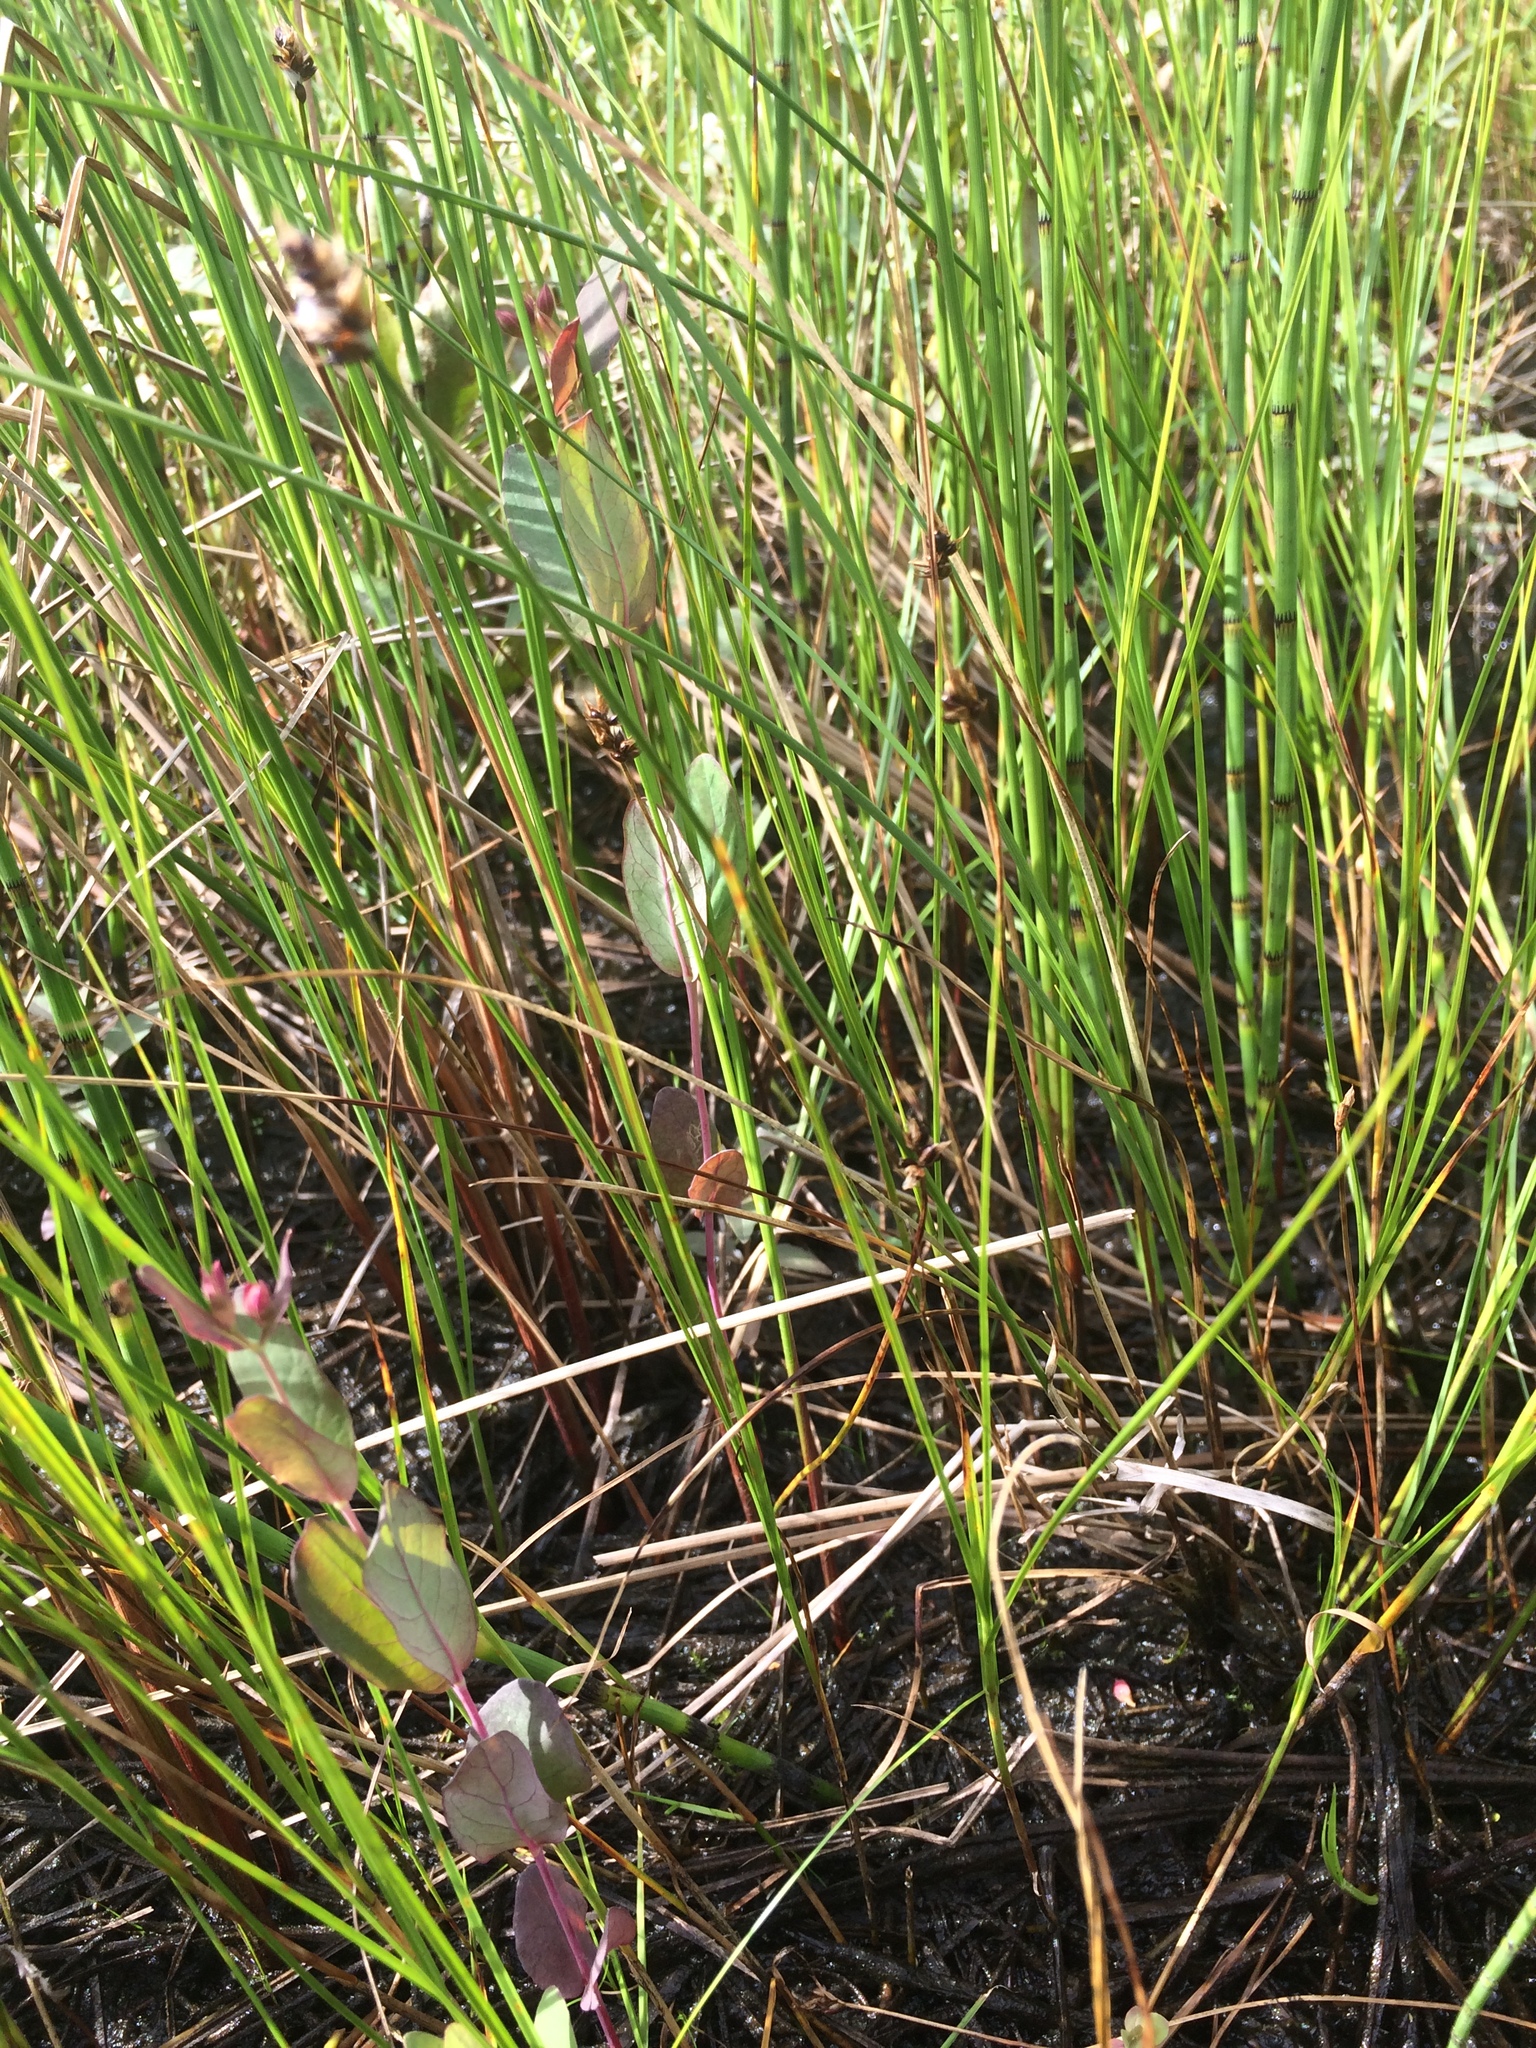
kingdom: Plantae
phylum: Tracheophyta
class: Liliopsida
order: Poales
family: Cyperaceae
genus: Carex
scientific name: Carex chordorrhiza
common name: String sedge
